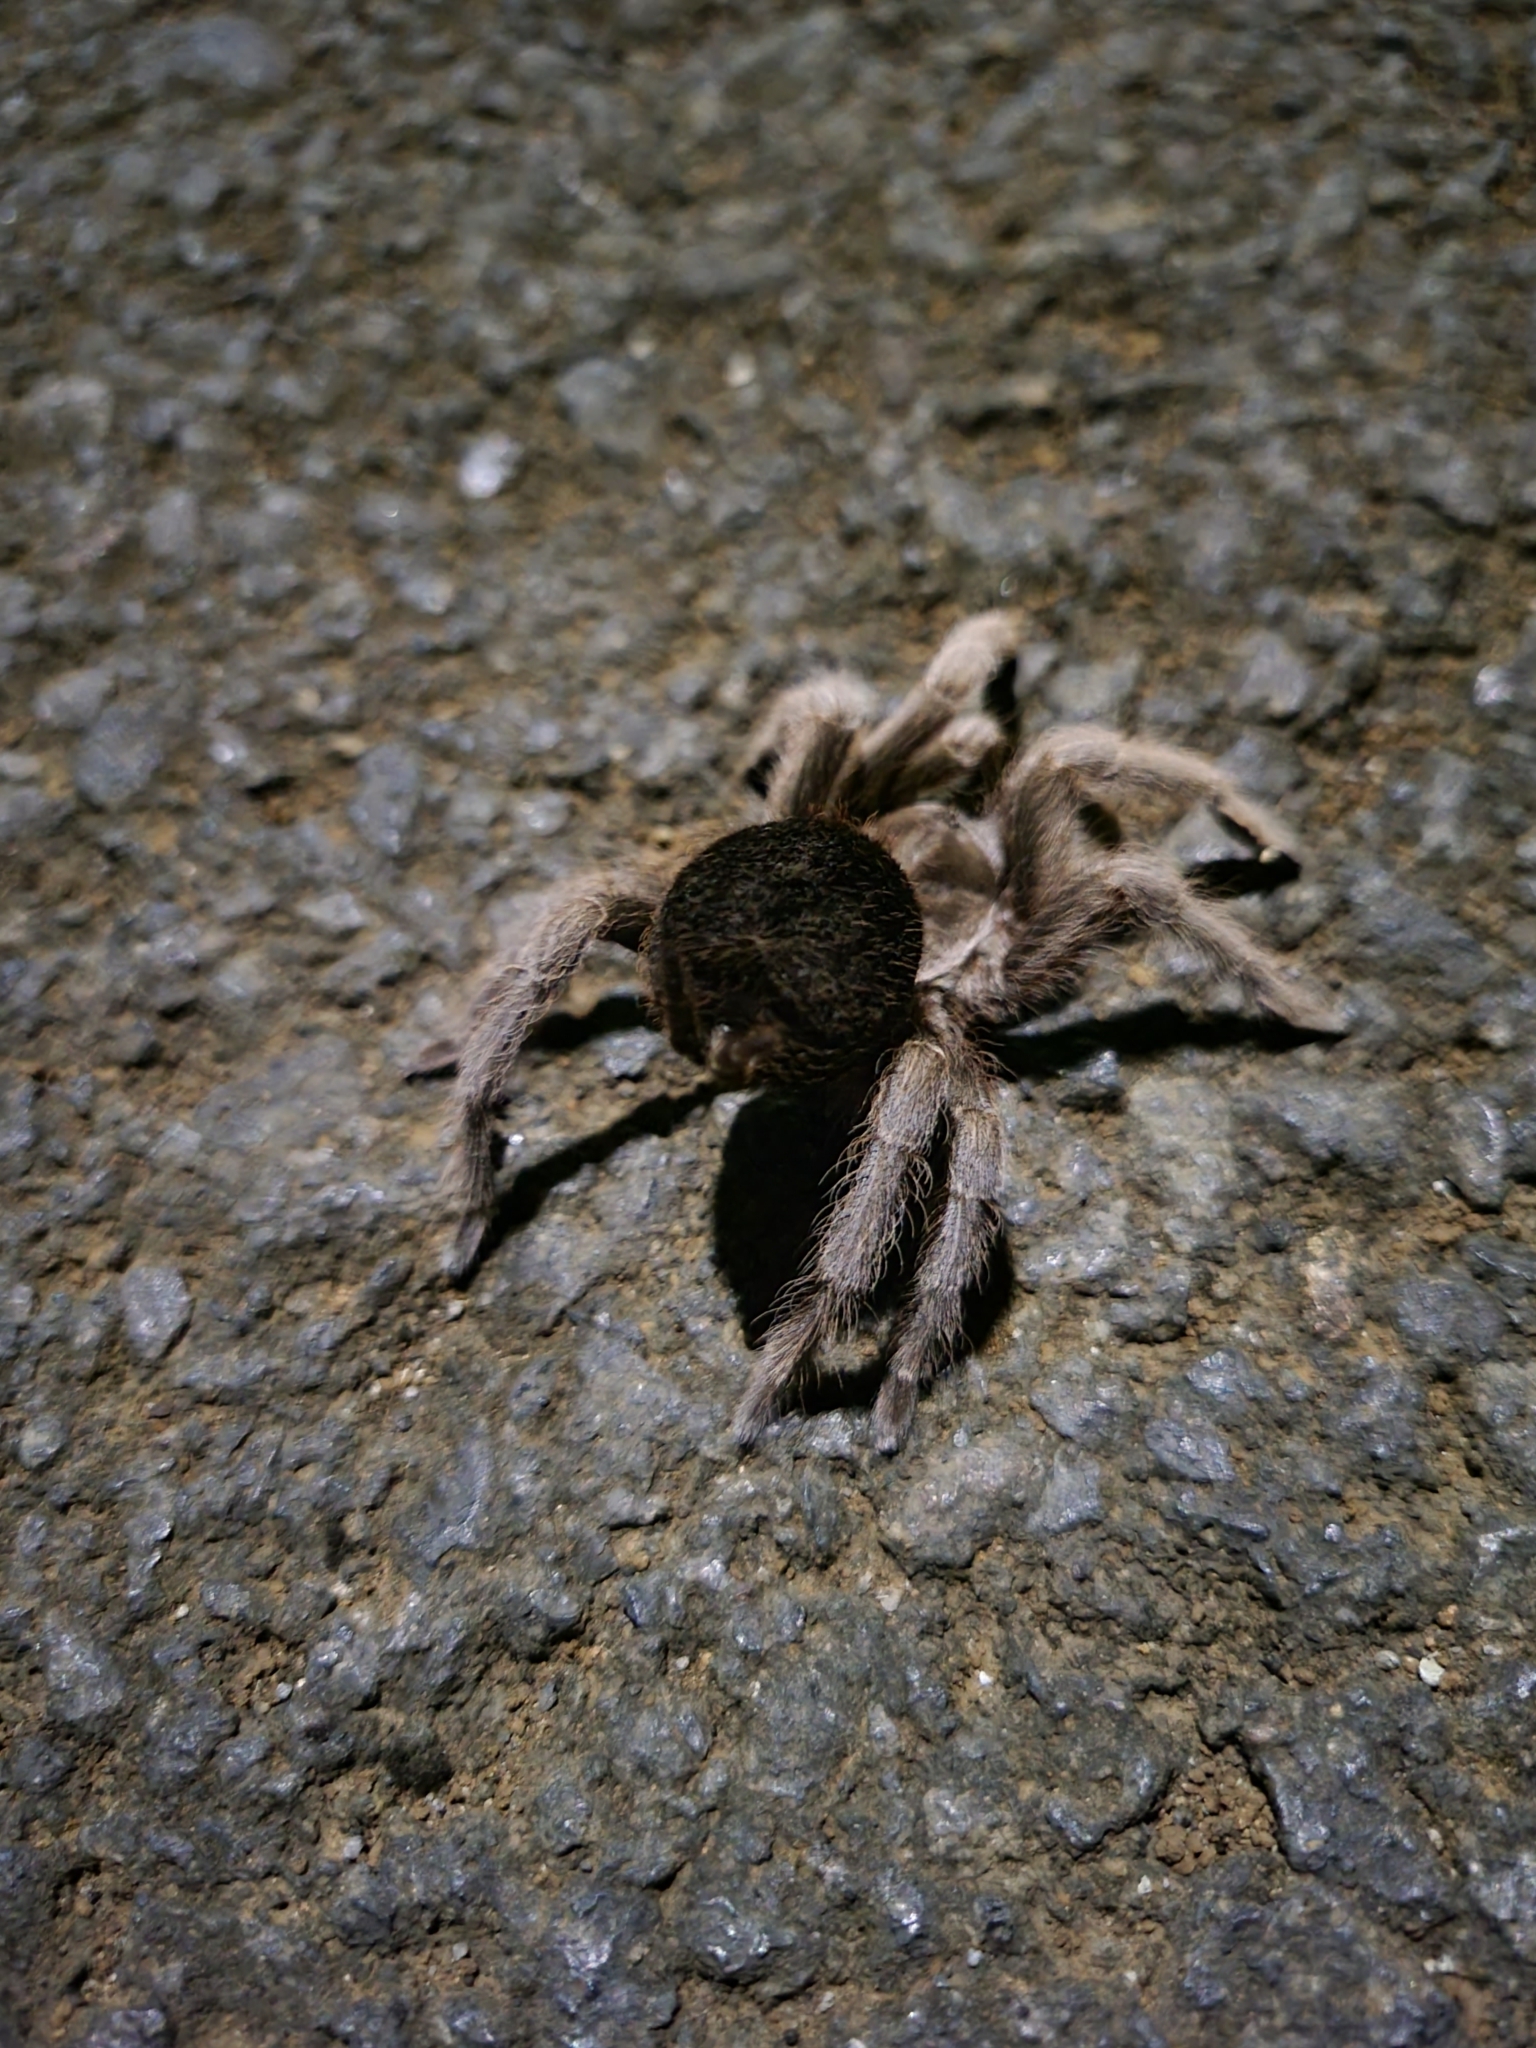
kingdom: Animalia
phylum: Arthropoda
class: Arachnida
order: Araneae
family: Theraphosidae
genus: Sphaerobothria
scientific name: Sphaerobothria hoffmanni
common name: Tarantula spiders
